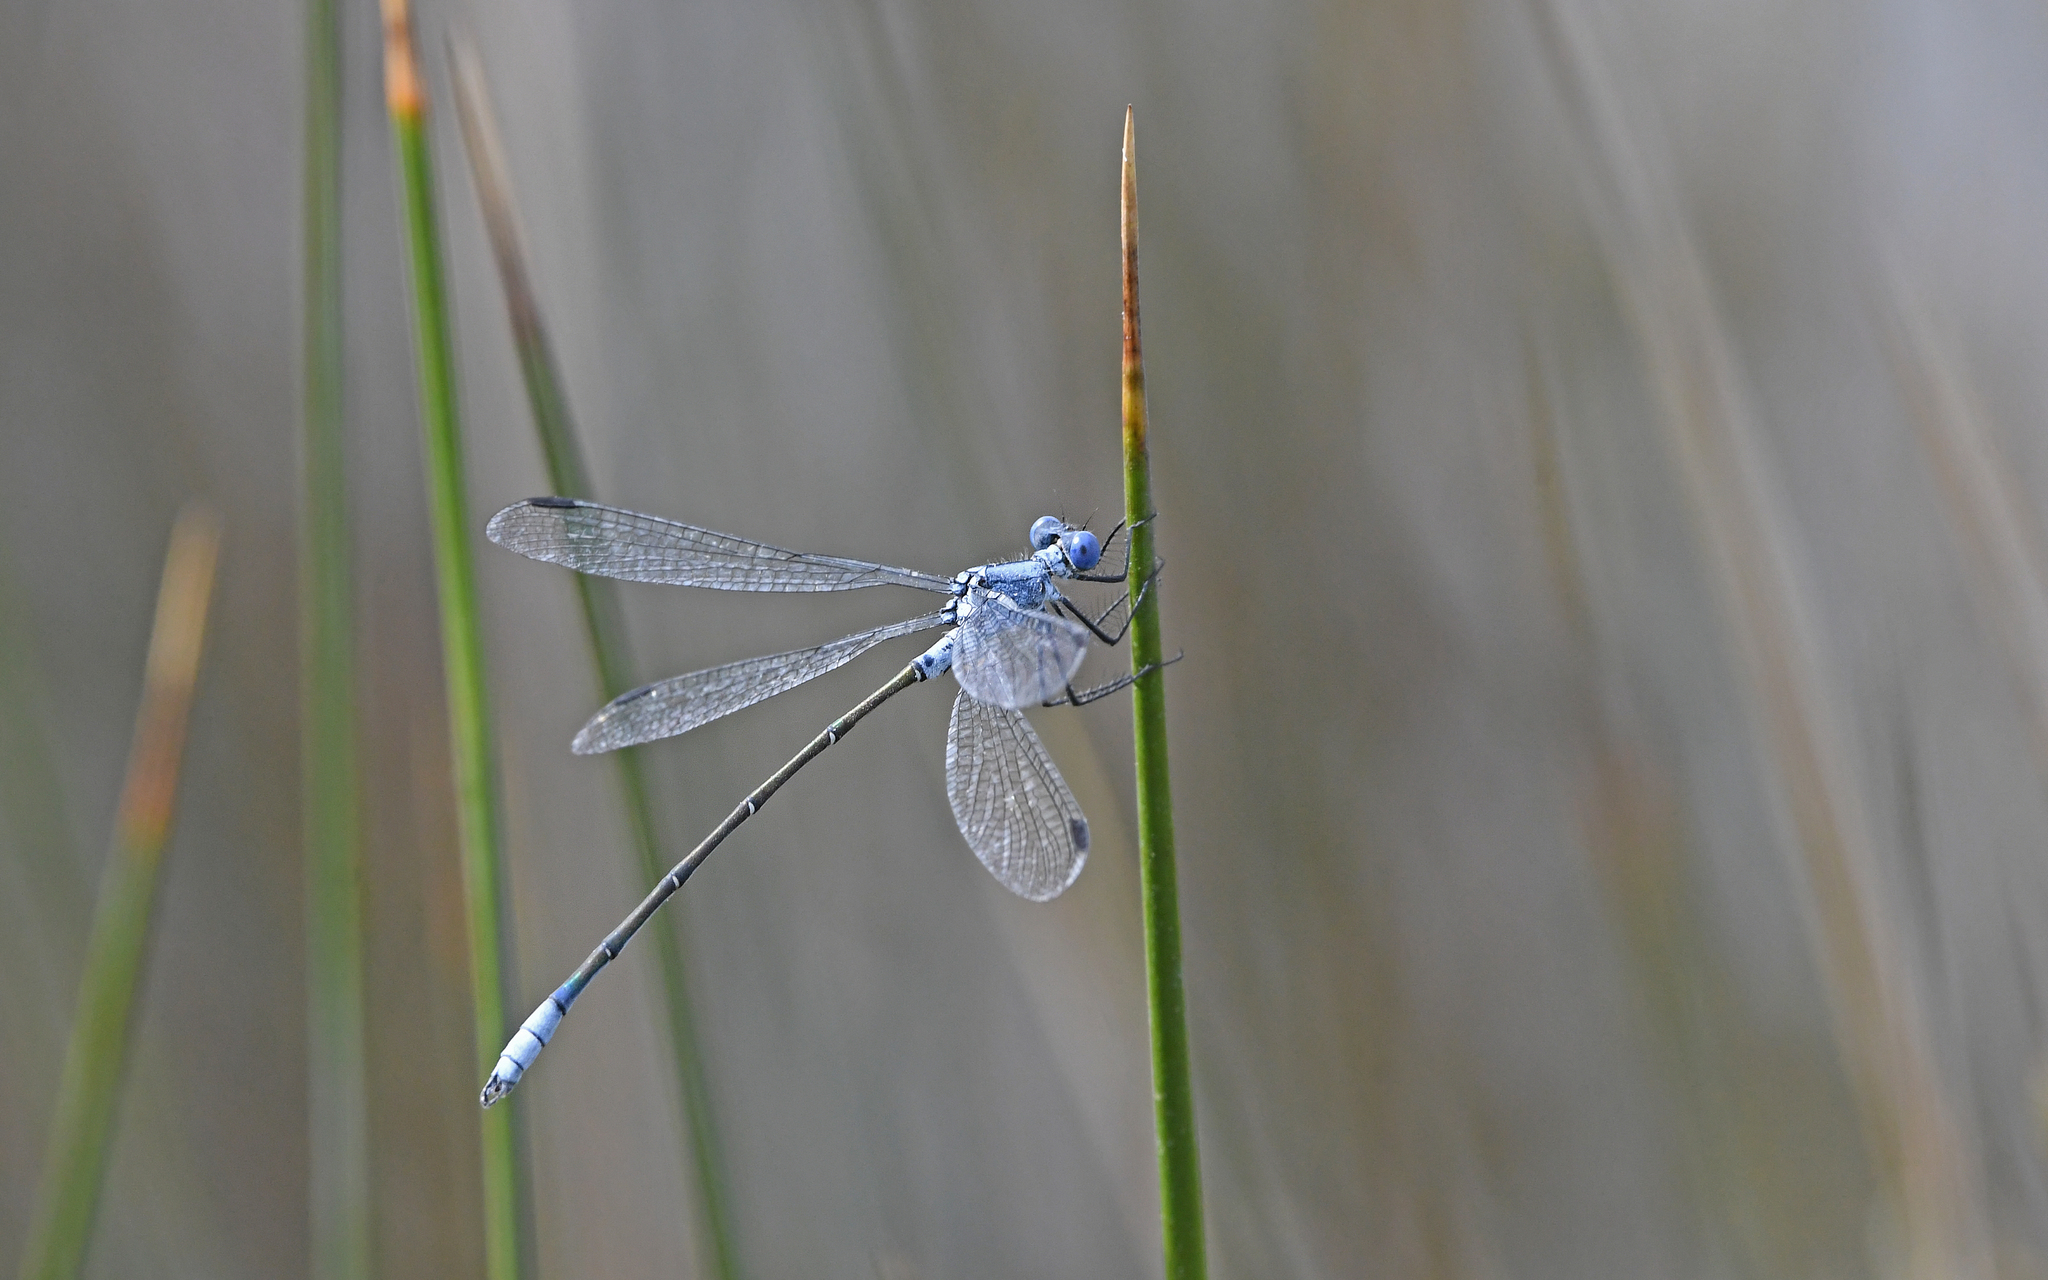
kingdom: Animalia
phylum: Arthropoda
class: Insecta
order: Odonata
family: Lestidae
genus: Lestes
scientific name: Lestes macrostigma
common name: Dark spreadwing
